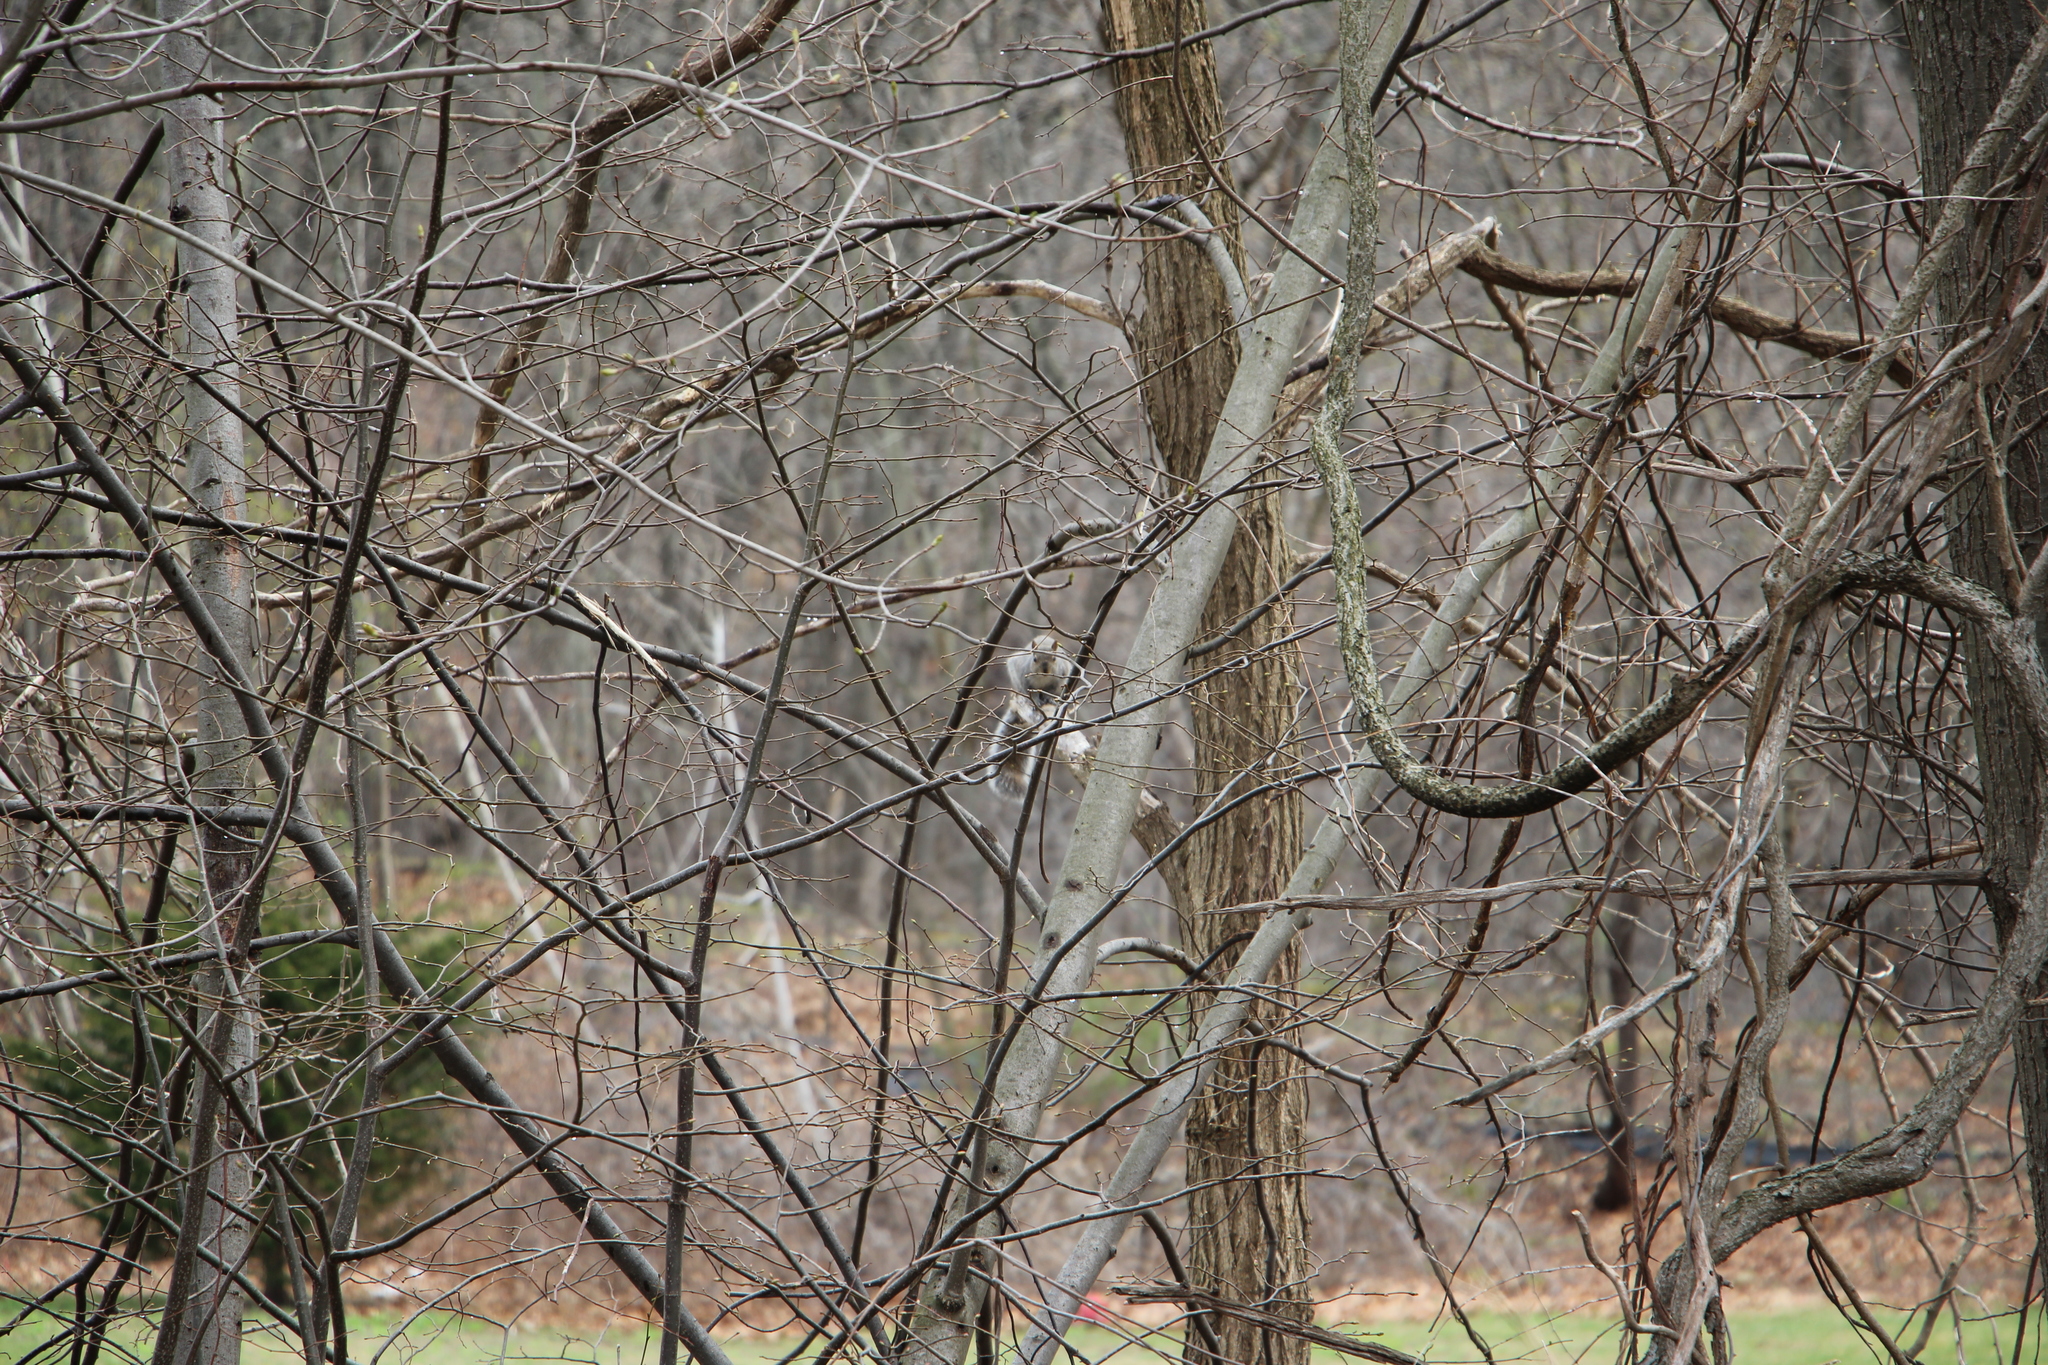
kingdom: Animalia
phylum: Chordata
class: Mammalia
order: Rodentia
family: Sciuridae
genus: Sciurus
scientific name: Sciurus carolinensis
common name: Eastern gray squirrel
